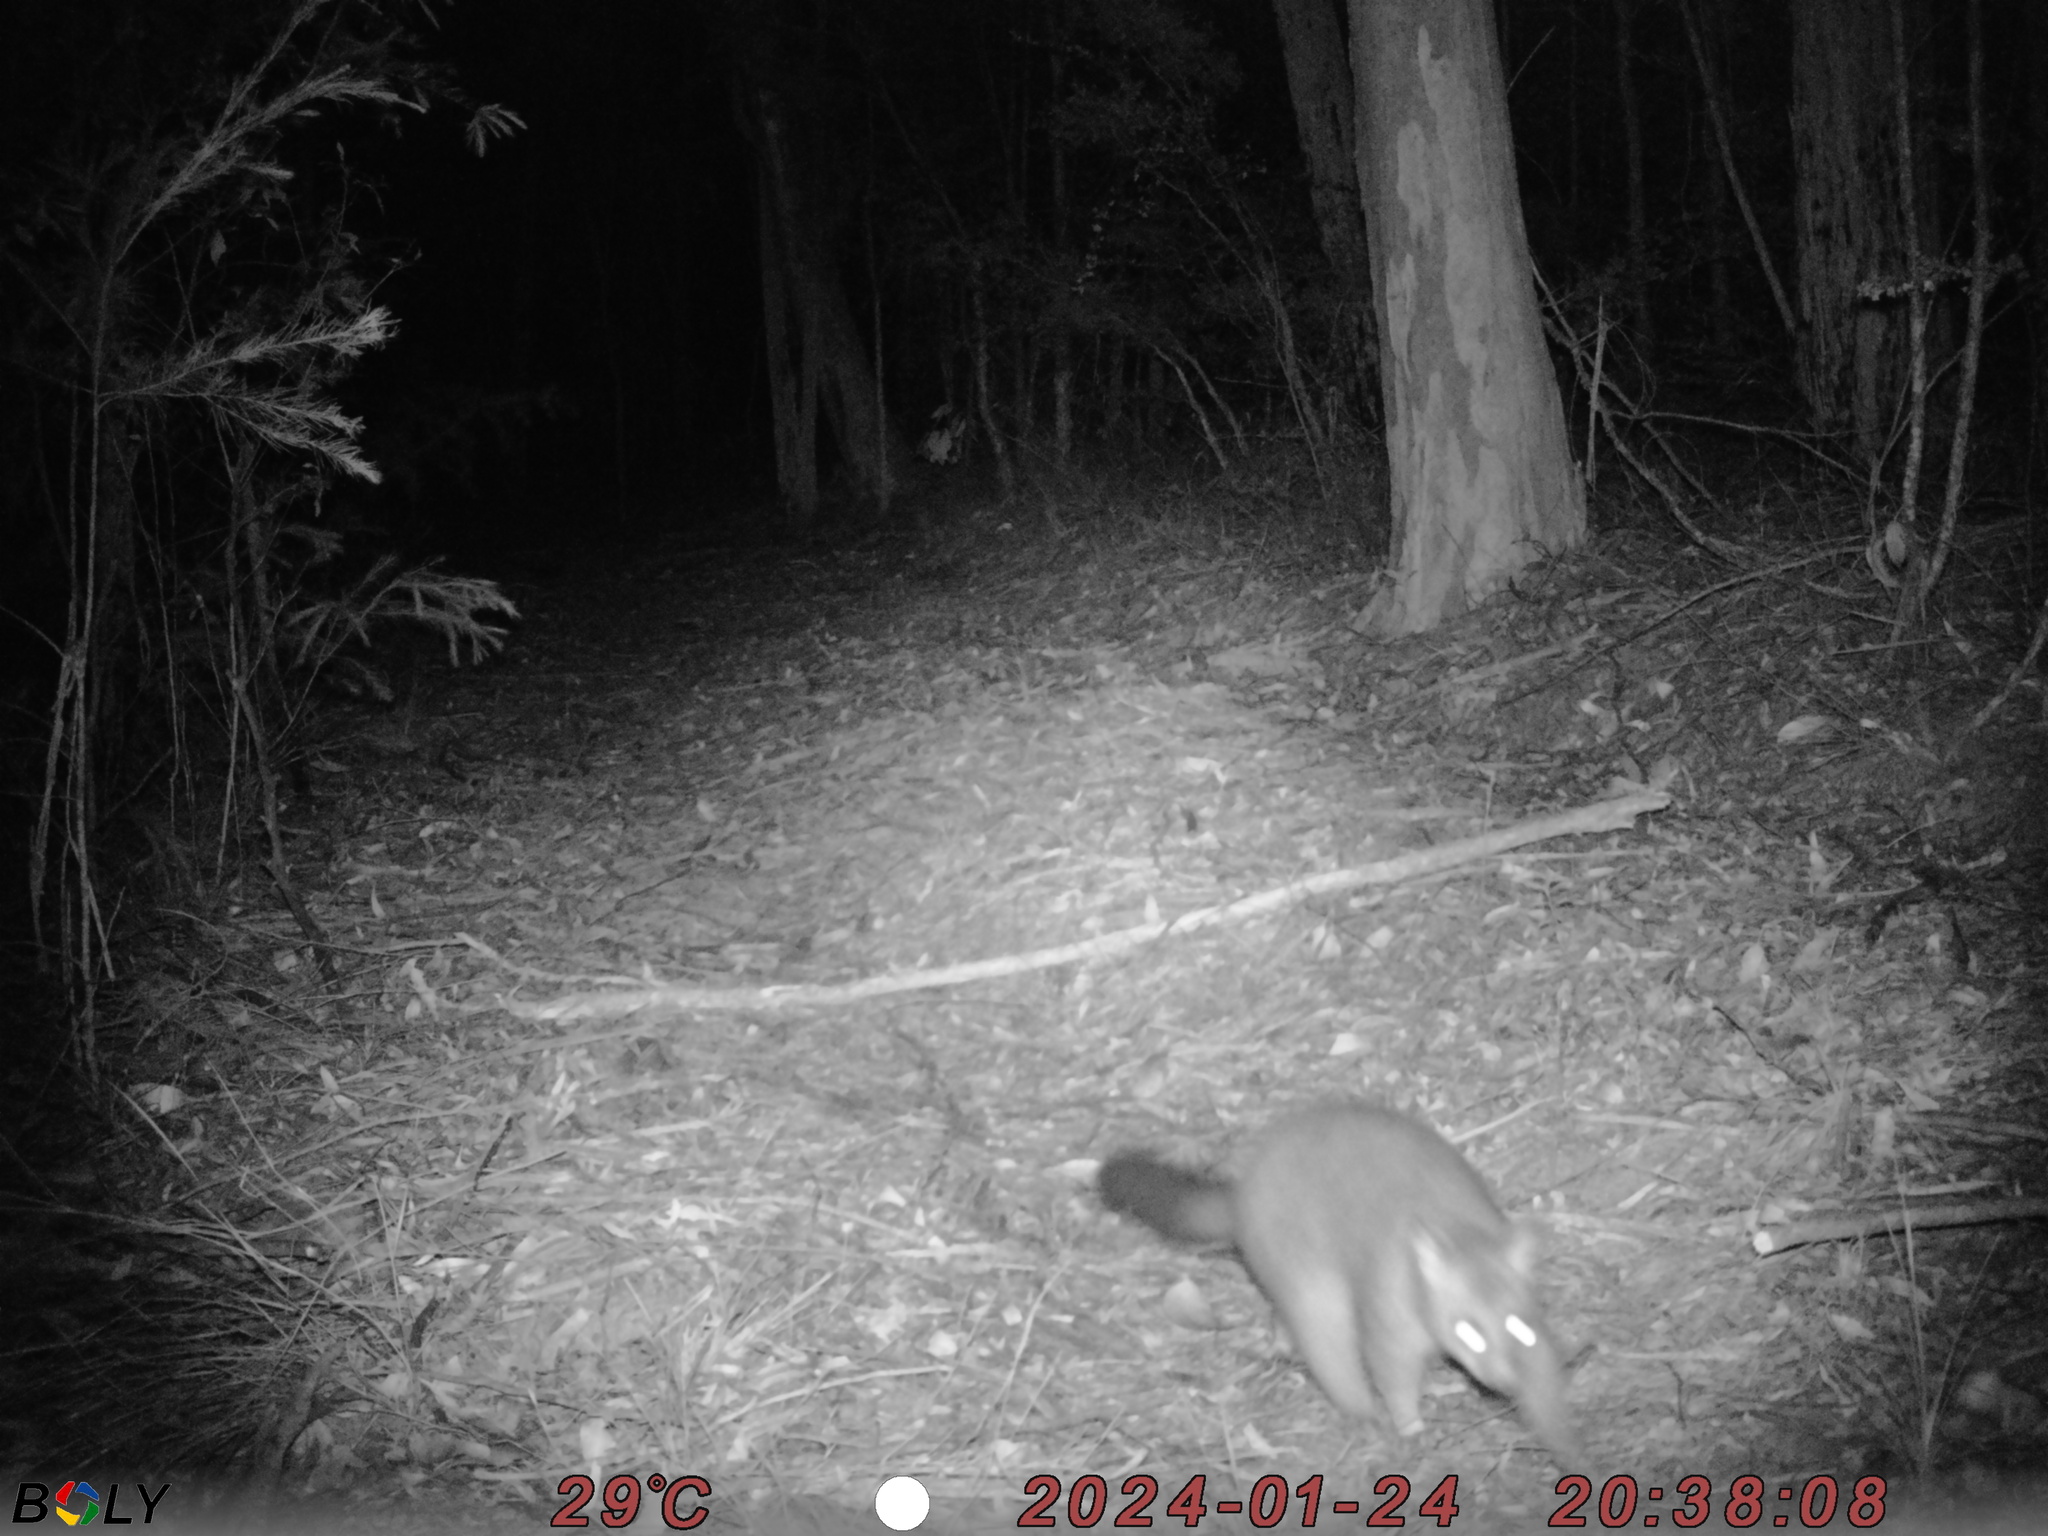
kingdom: Animalia
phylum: Chordata
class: Mammalia
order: Diprotodontia
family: Phalangeridae
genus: Trichosurus
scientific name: Trichosurus vulpecula
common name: Common brushtail
